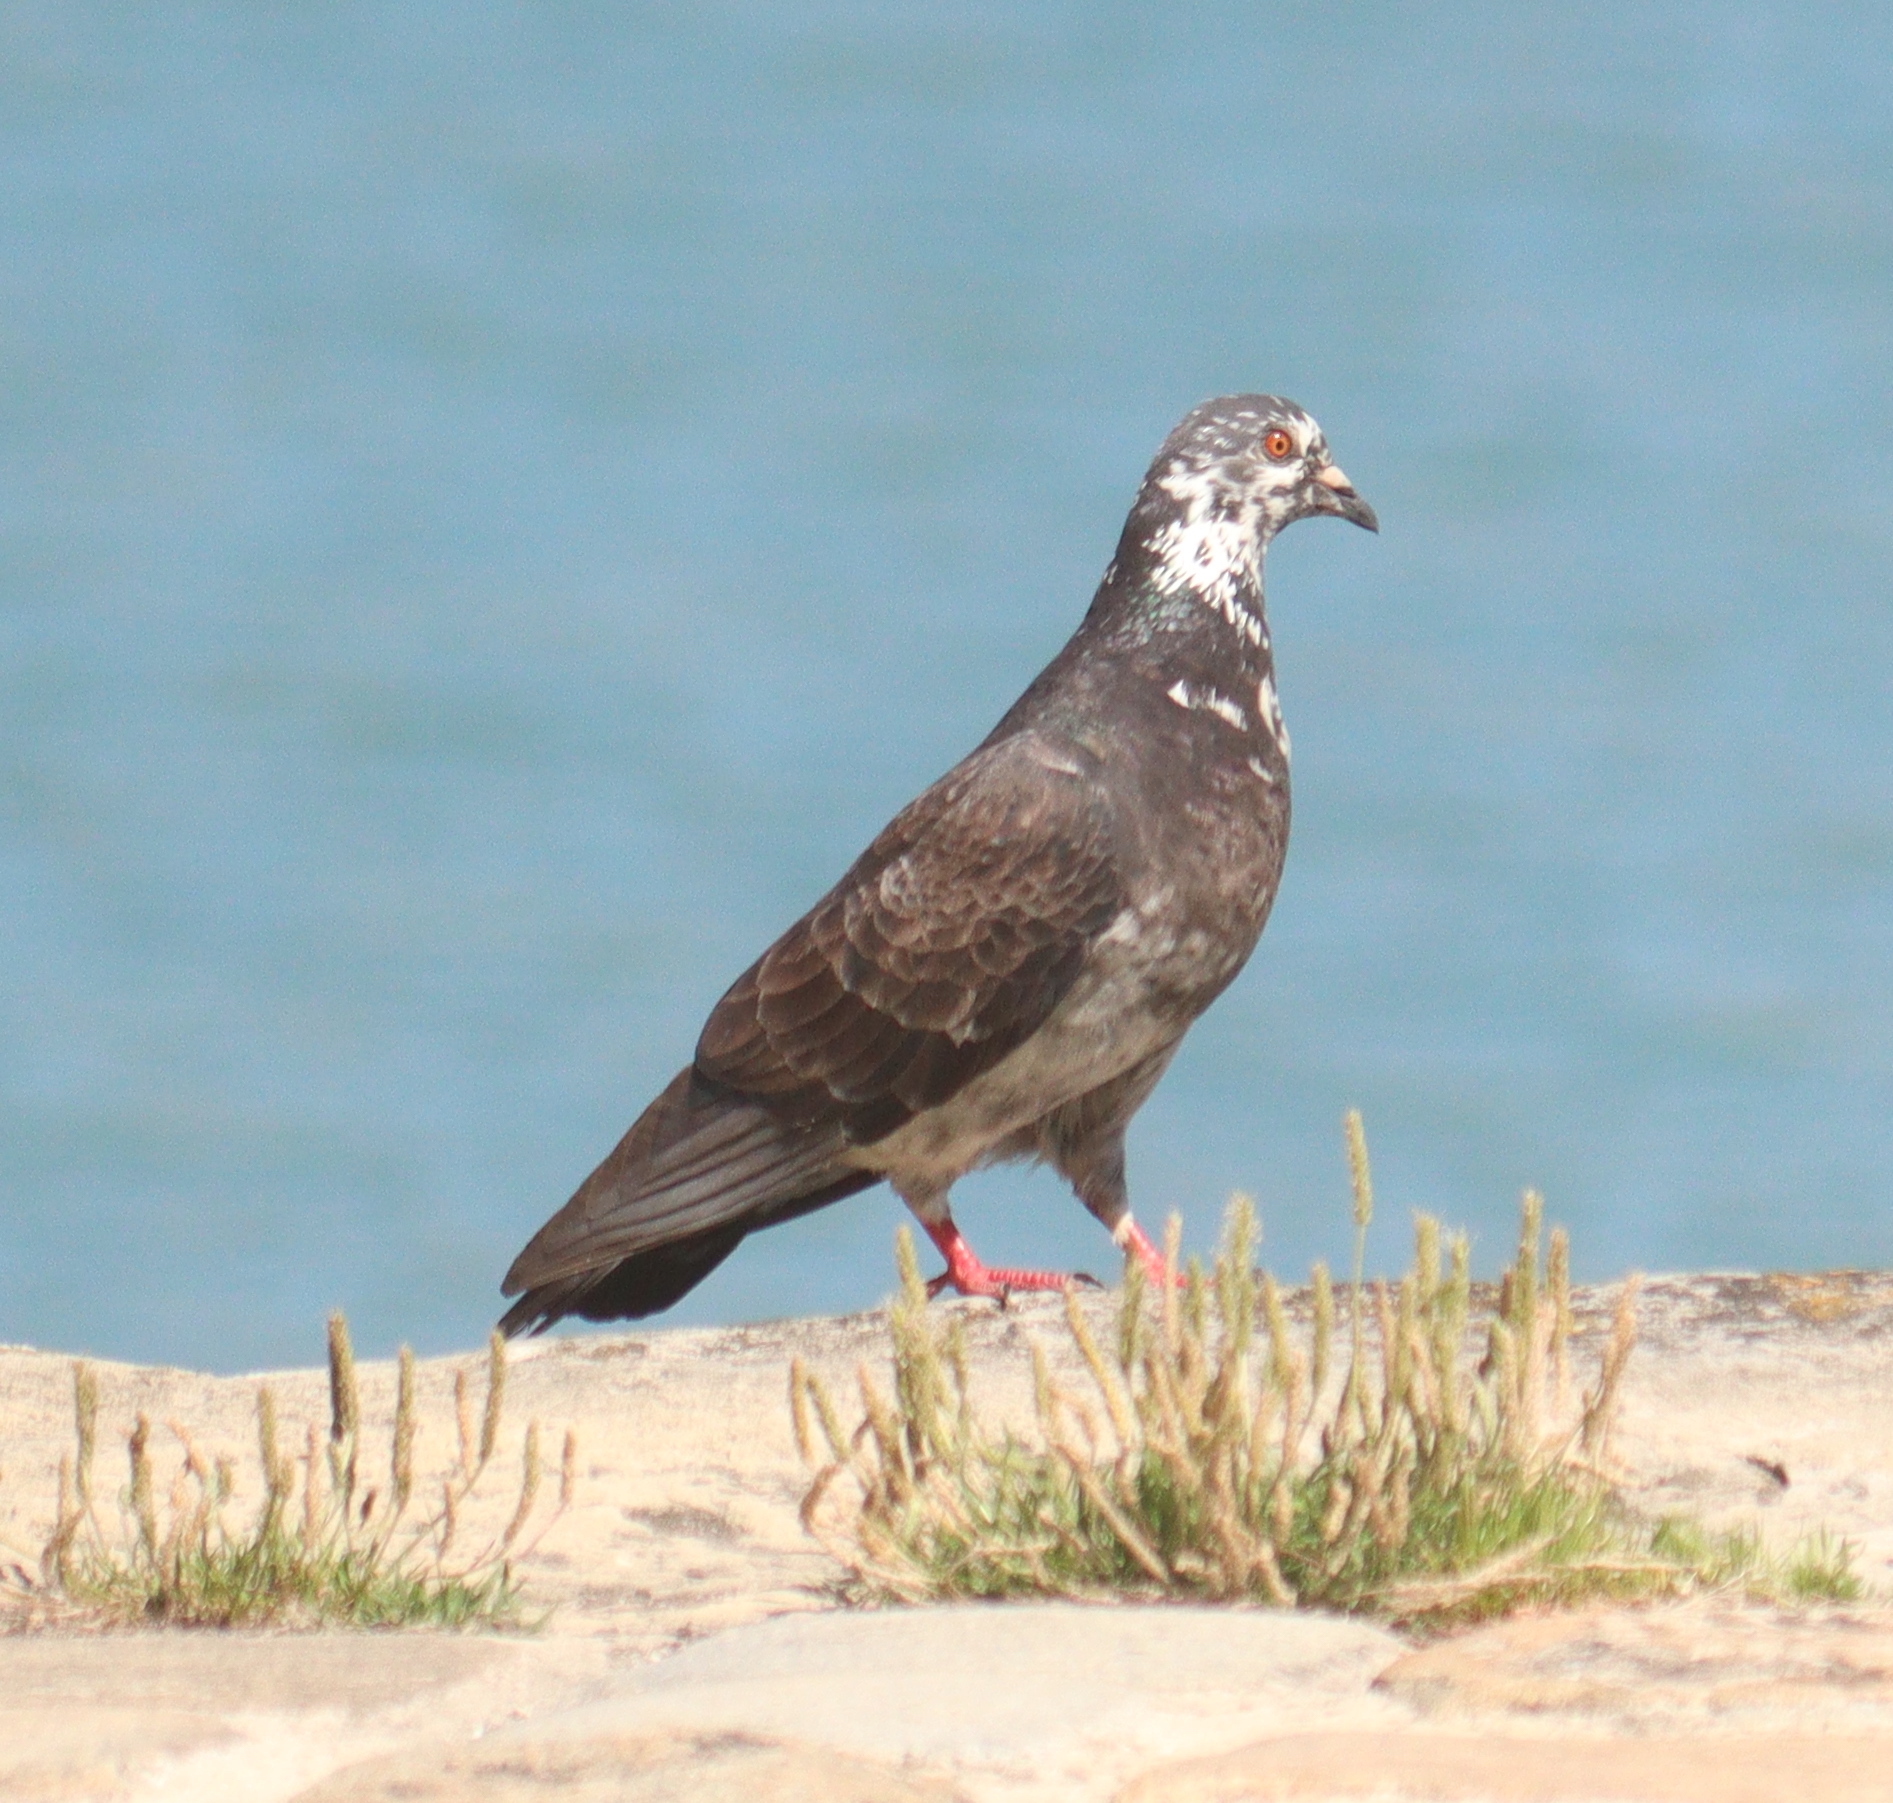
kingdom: Animalia
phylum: Chordata
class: Aves
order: Columbiformes
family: Columbidae
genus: Columba
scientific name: Columba livia
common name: Rock pigeon
